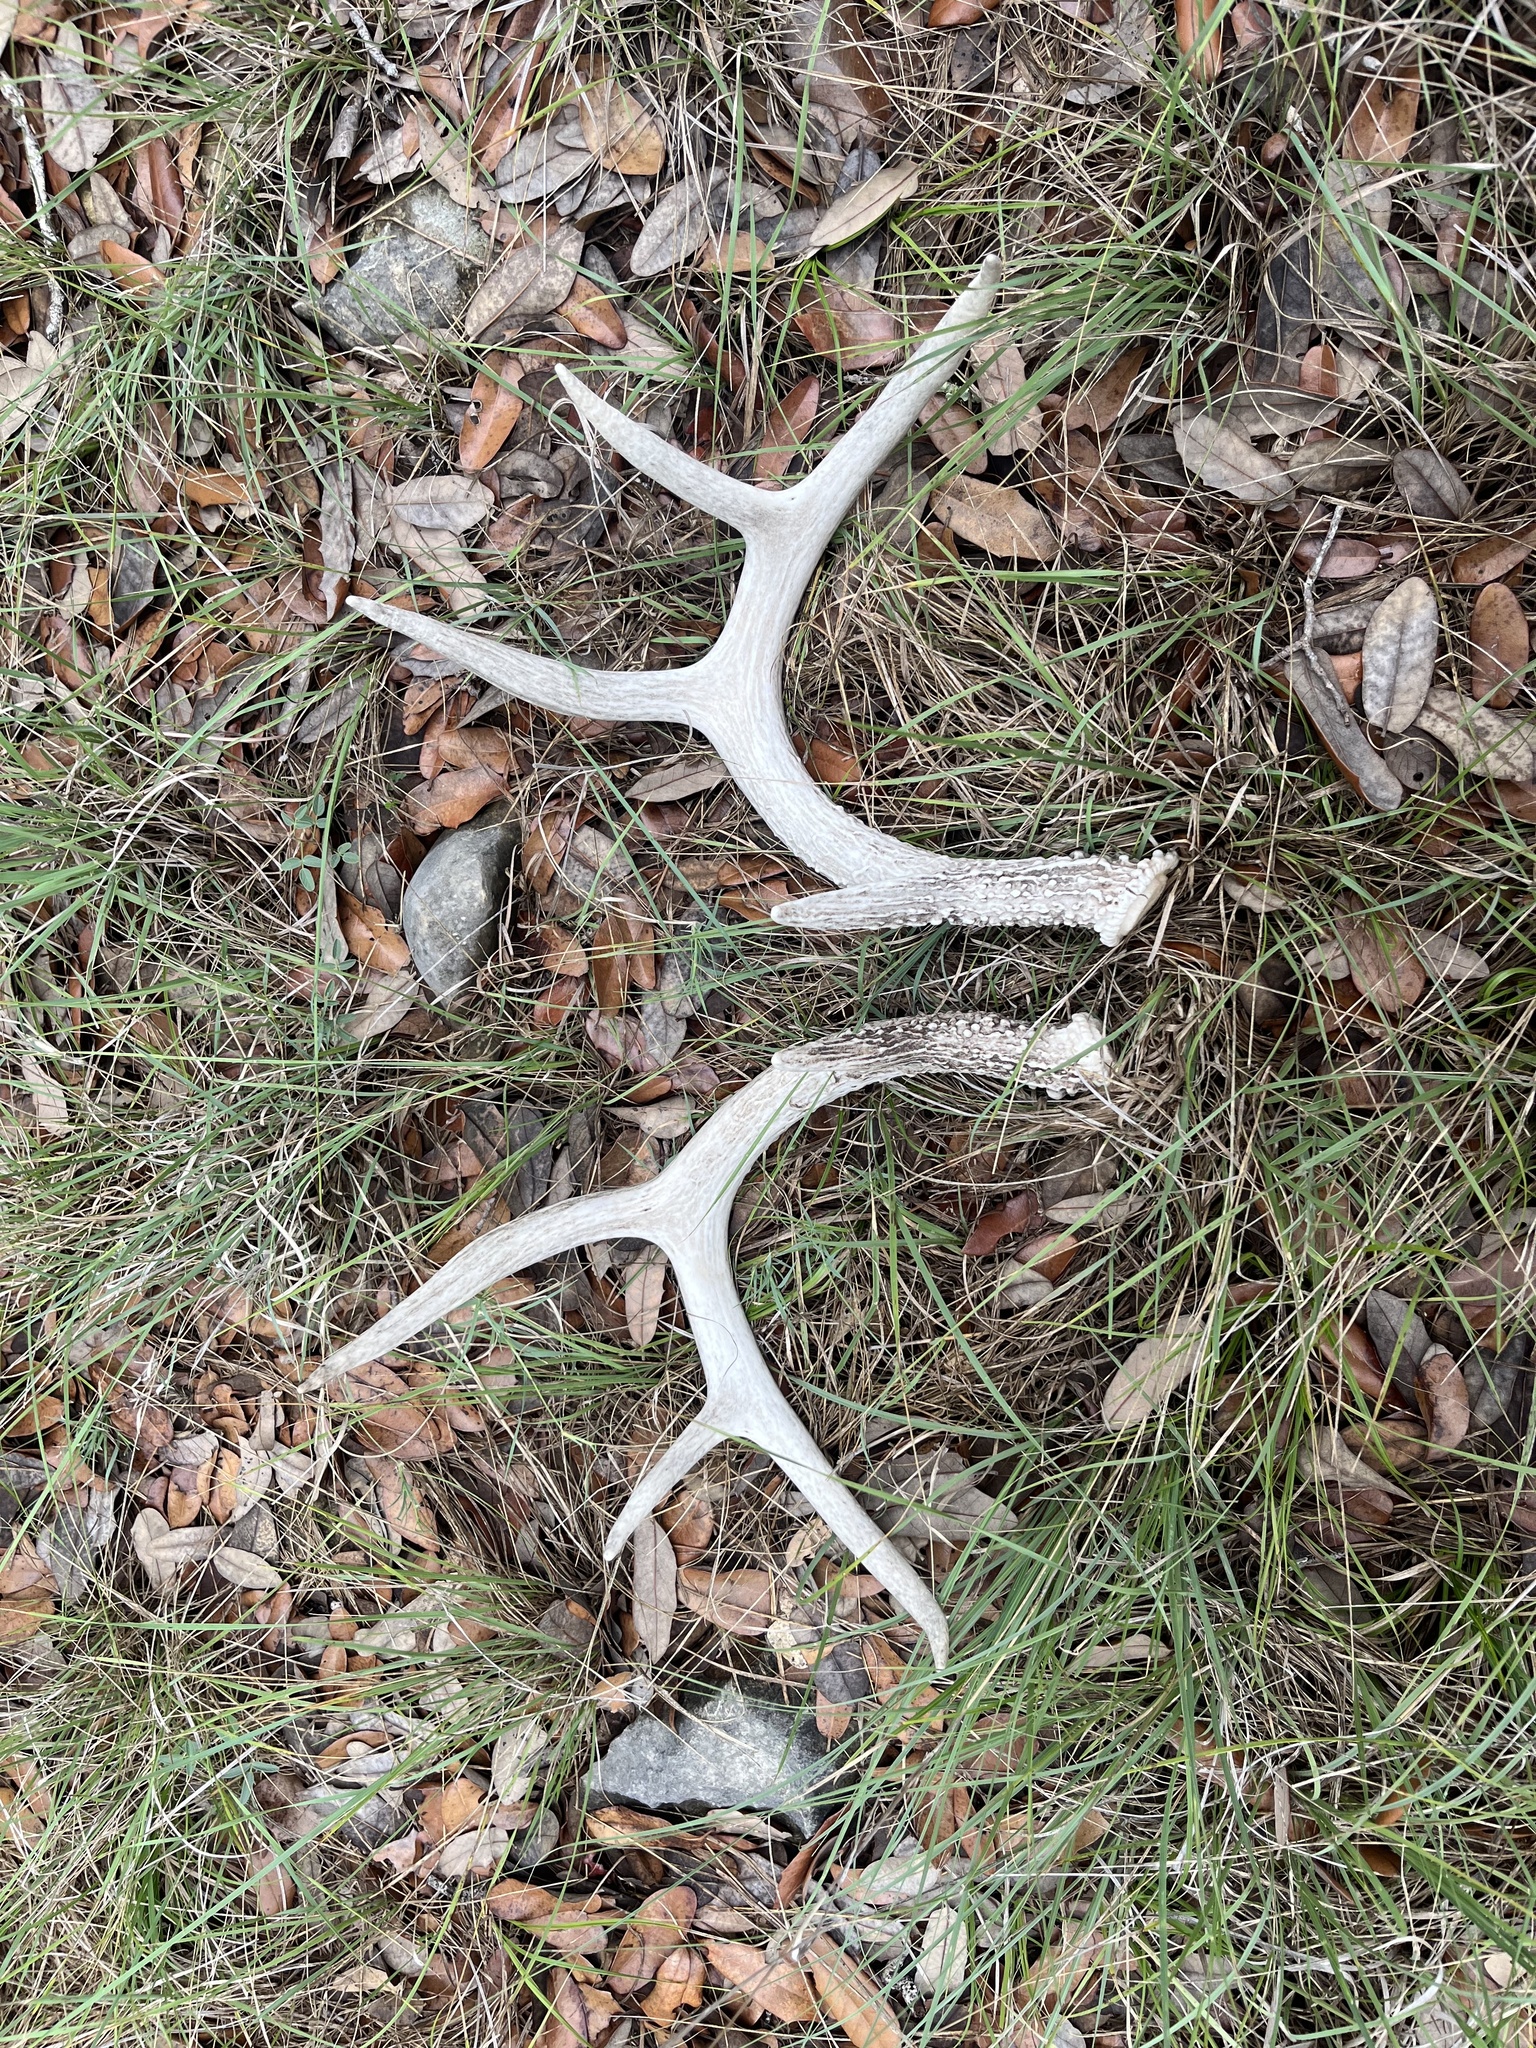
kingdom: Animalia
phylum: Chordata
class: Mammalia
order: Artiodactyla
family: Cervidae
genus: Odocoileus
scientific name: Odocoileus virginianus
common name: White-tailed deer
